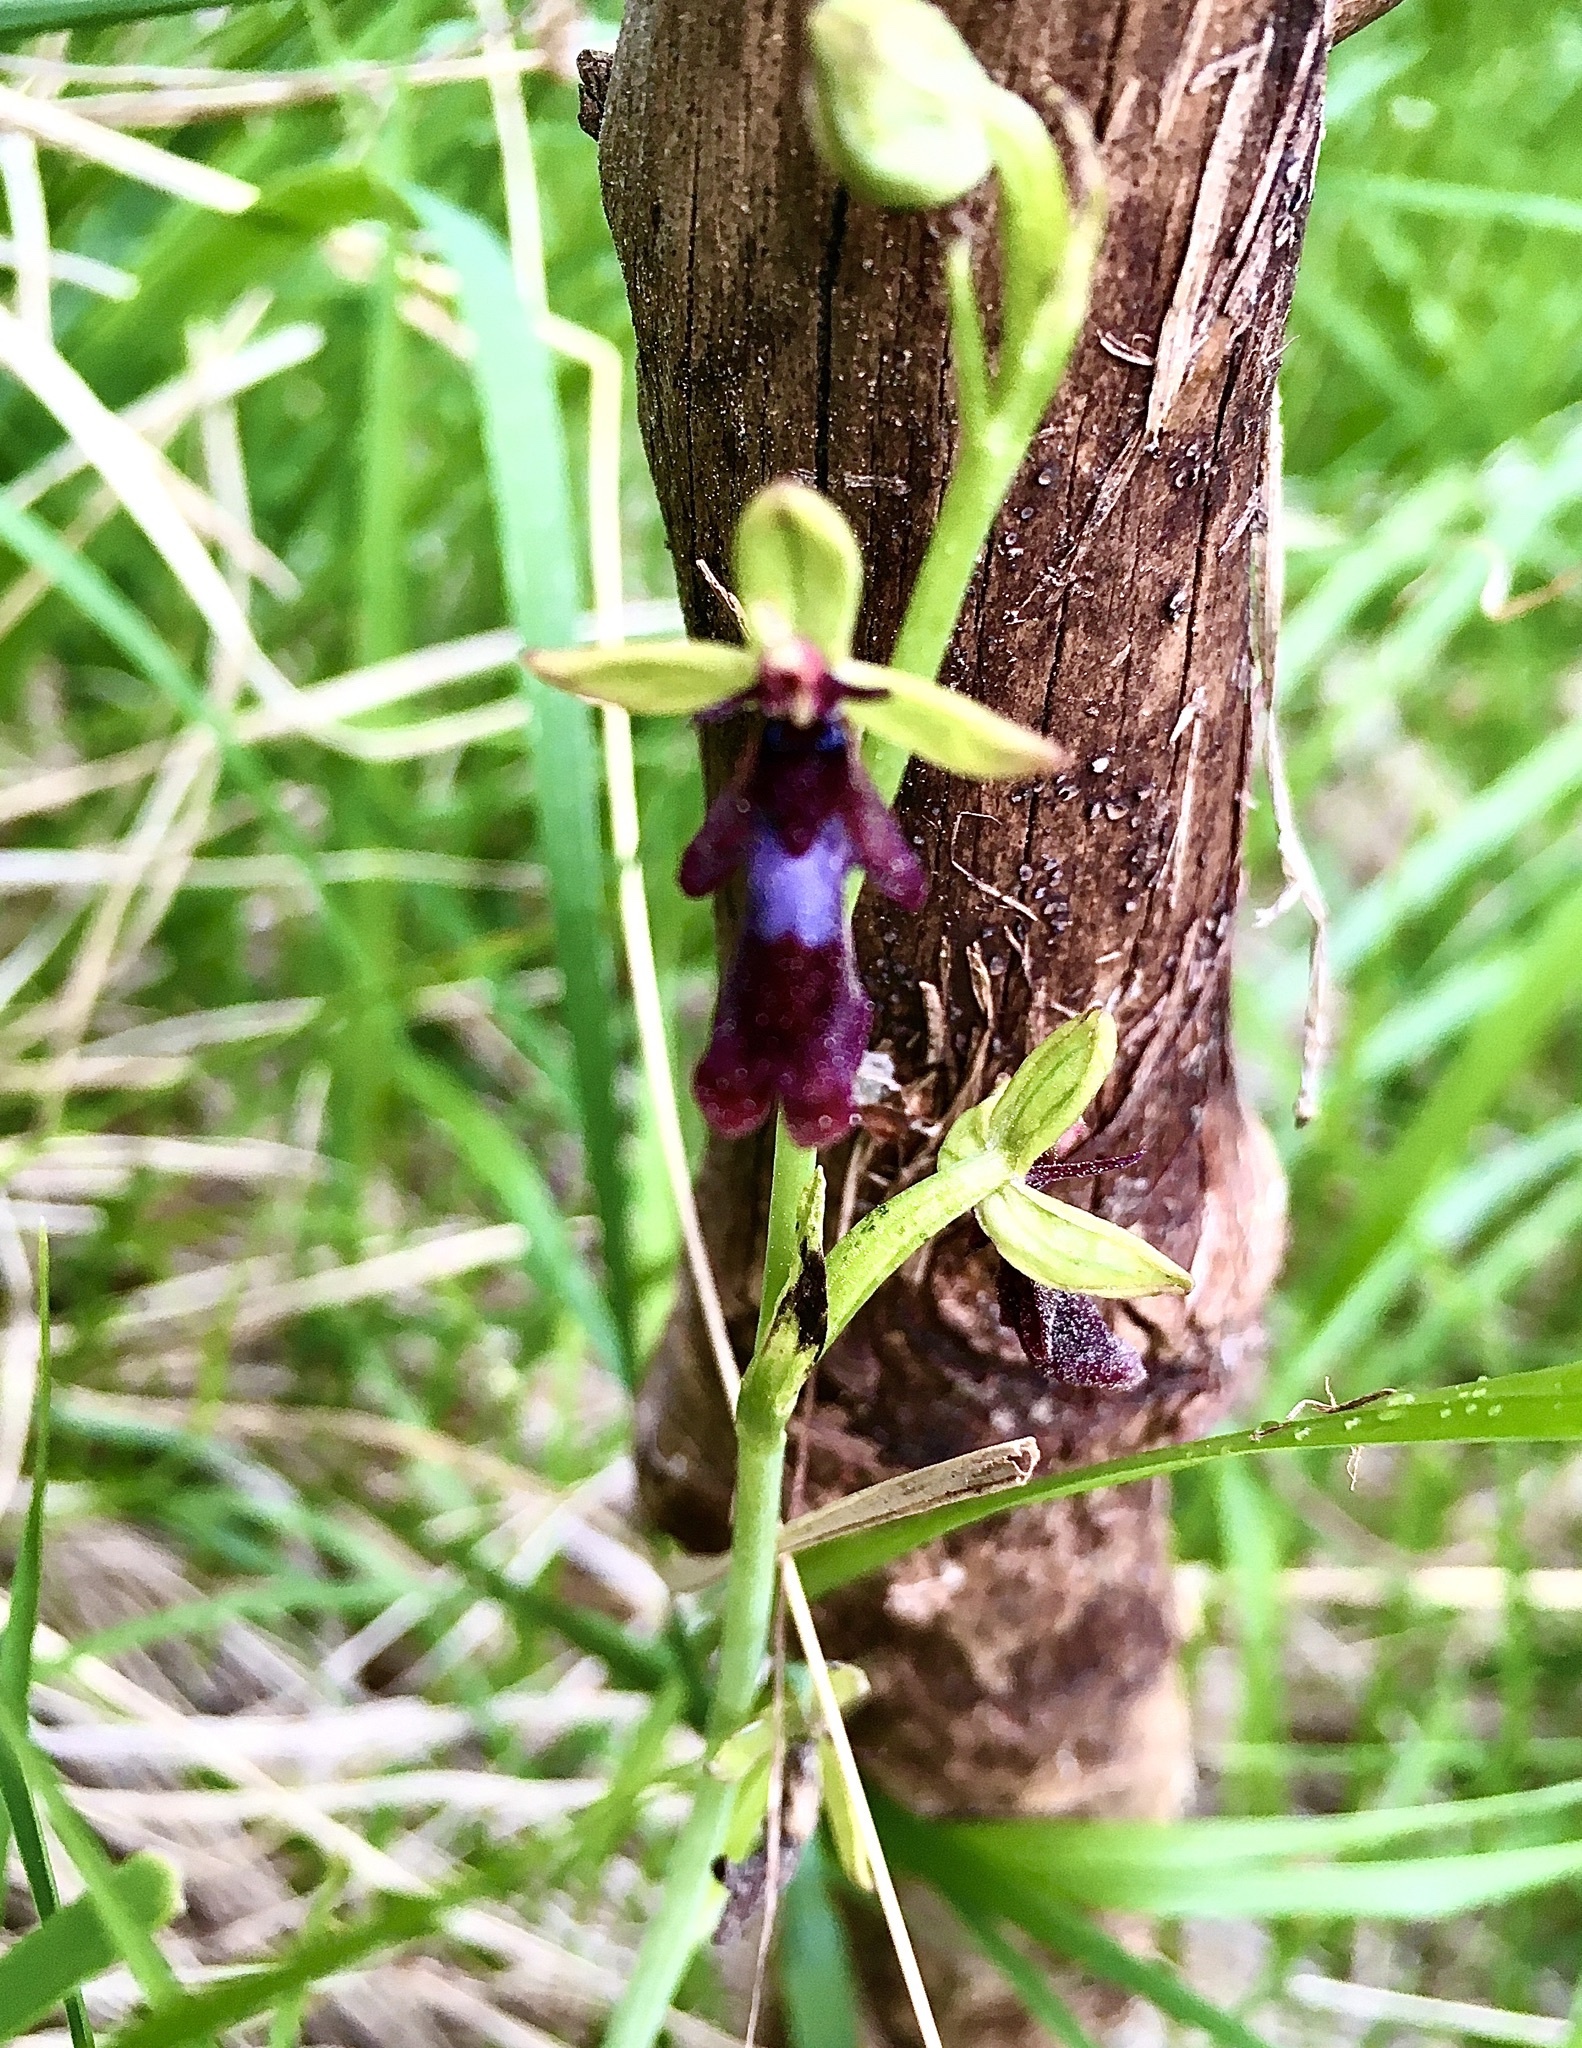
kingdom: Plantae
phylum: Tracheophyta
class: Liliopsida
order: Asparagales
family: Orchidaceae
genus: Ophrys
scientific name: Ophrys insectifera
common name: Fly orchid
